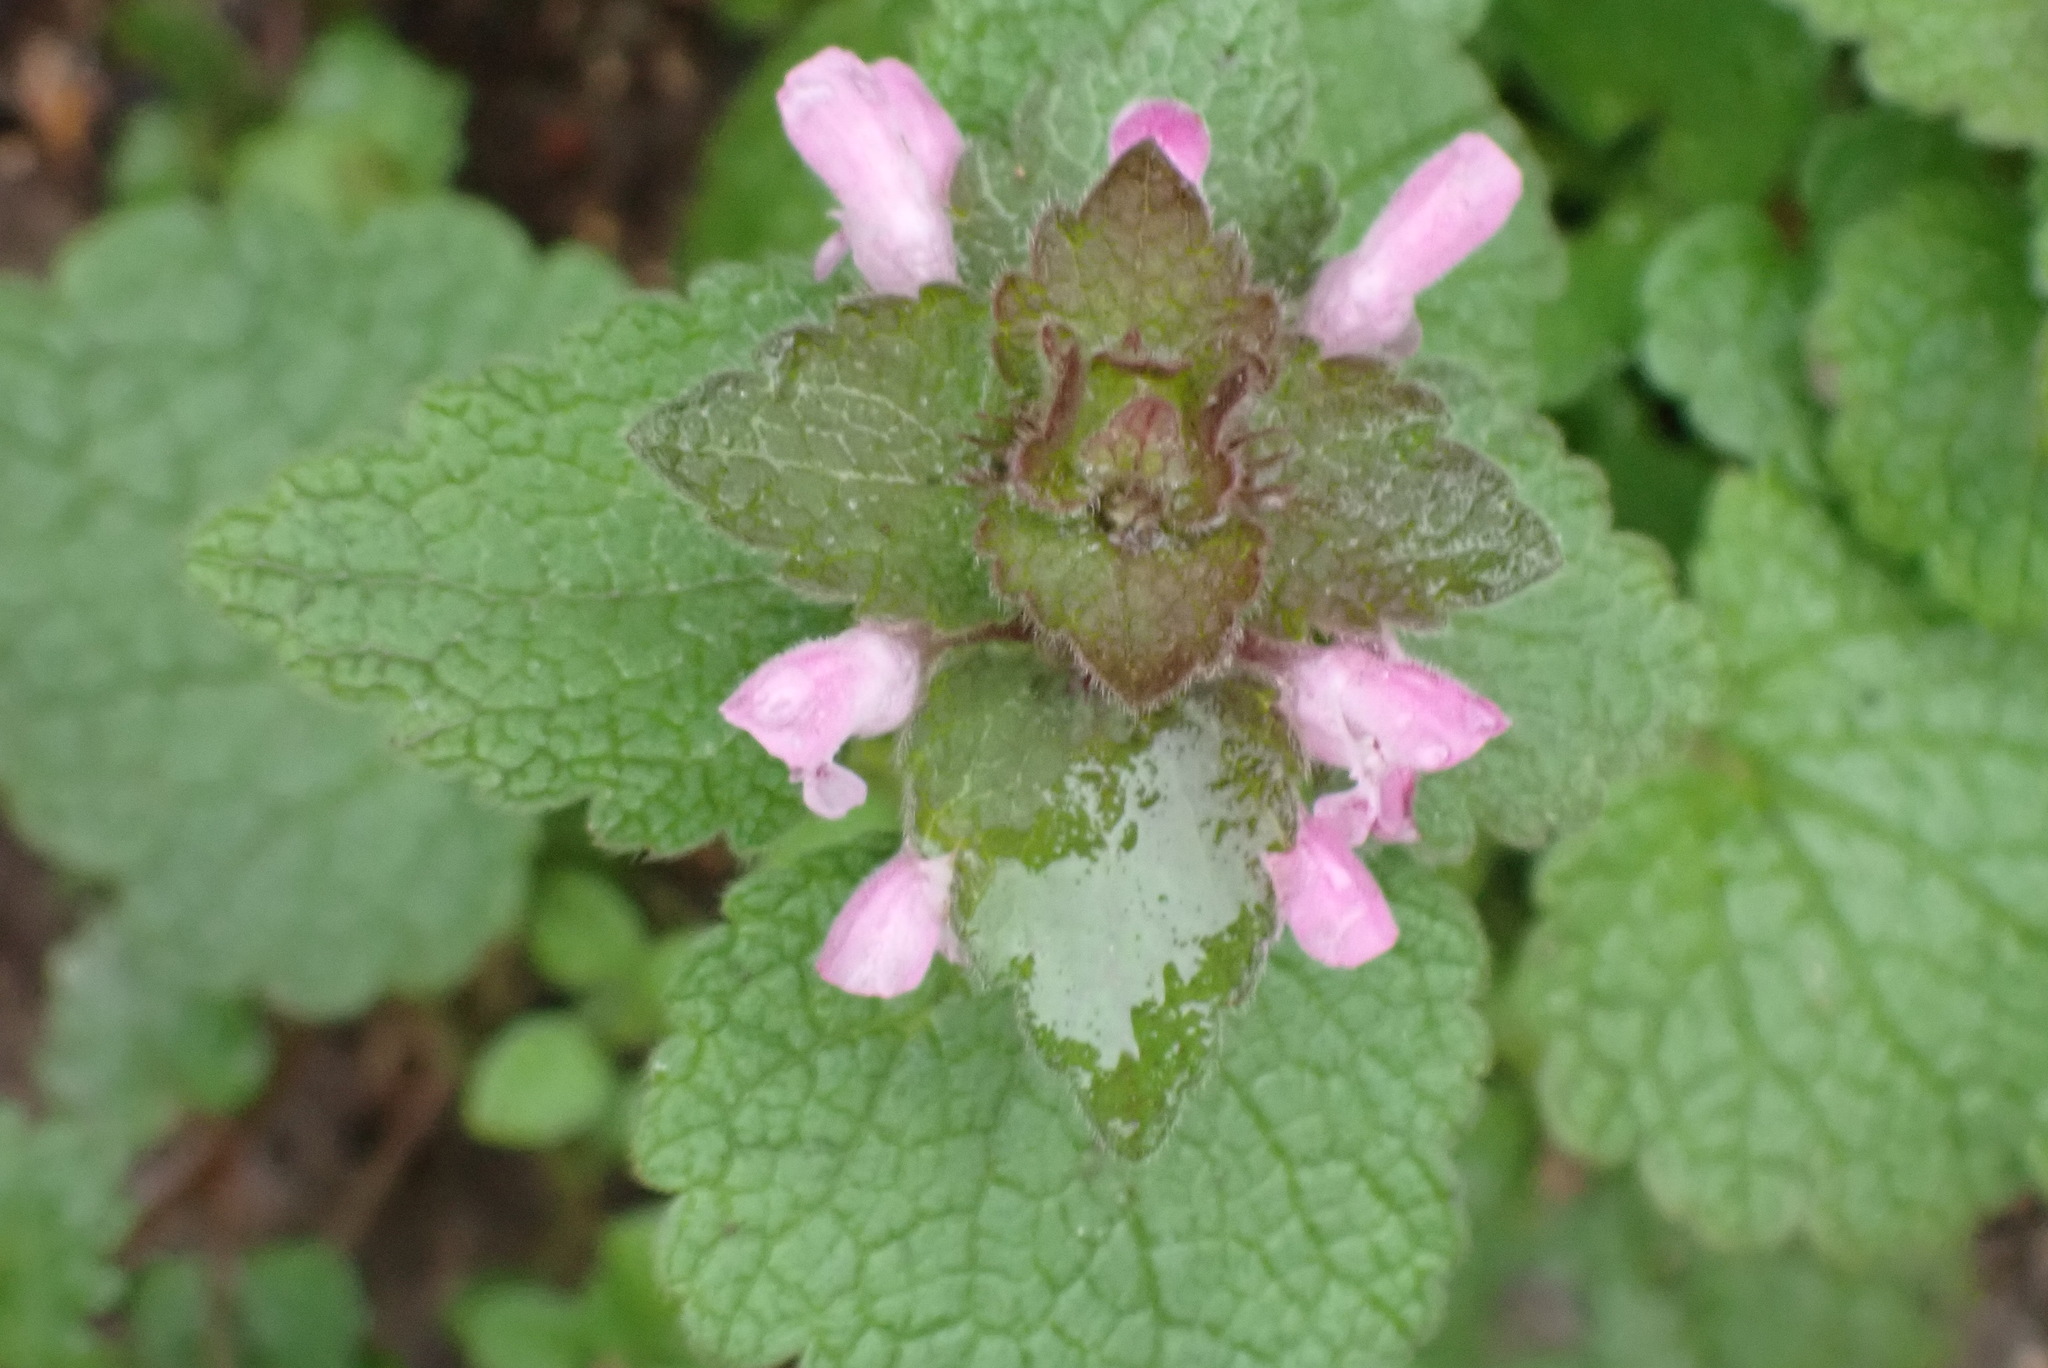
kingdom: Plantae
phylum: Tracheophyta
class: Magnoliopsida
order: Lamiales
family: Lamiaceae
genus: Lamium
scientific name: Lamium purpureum
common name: Red dead-nettle
